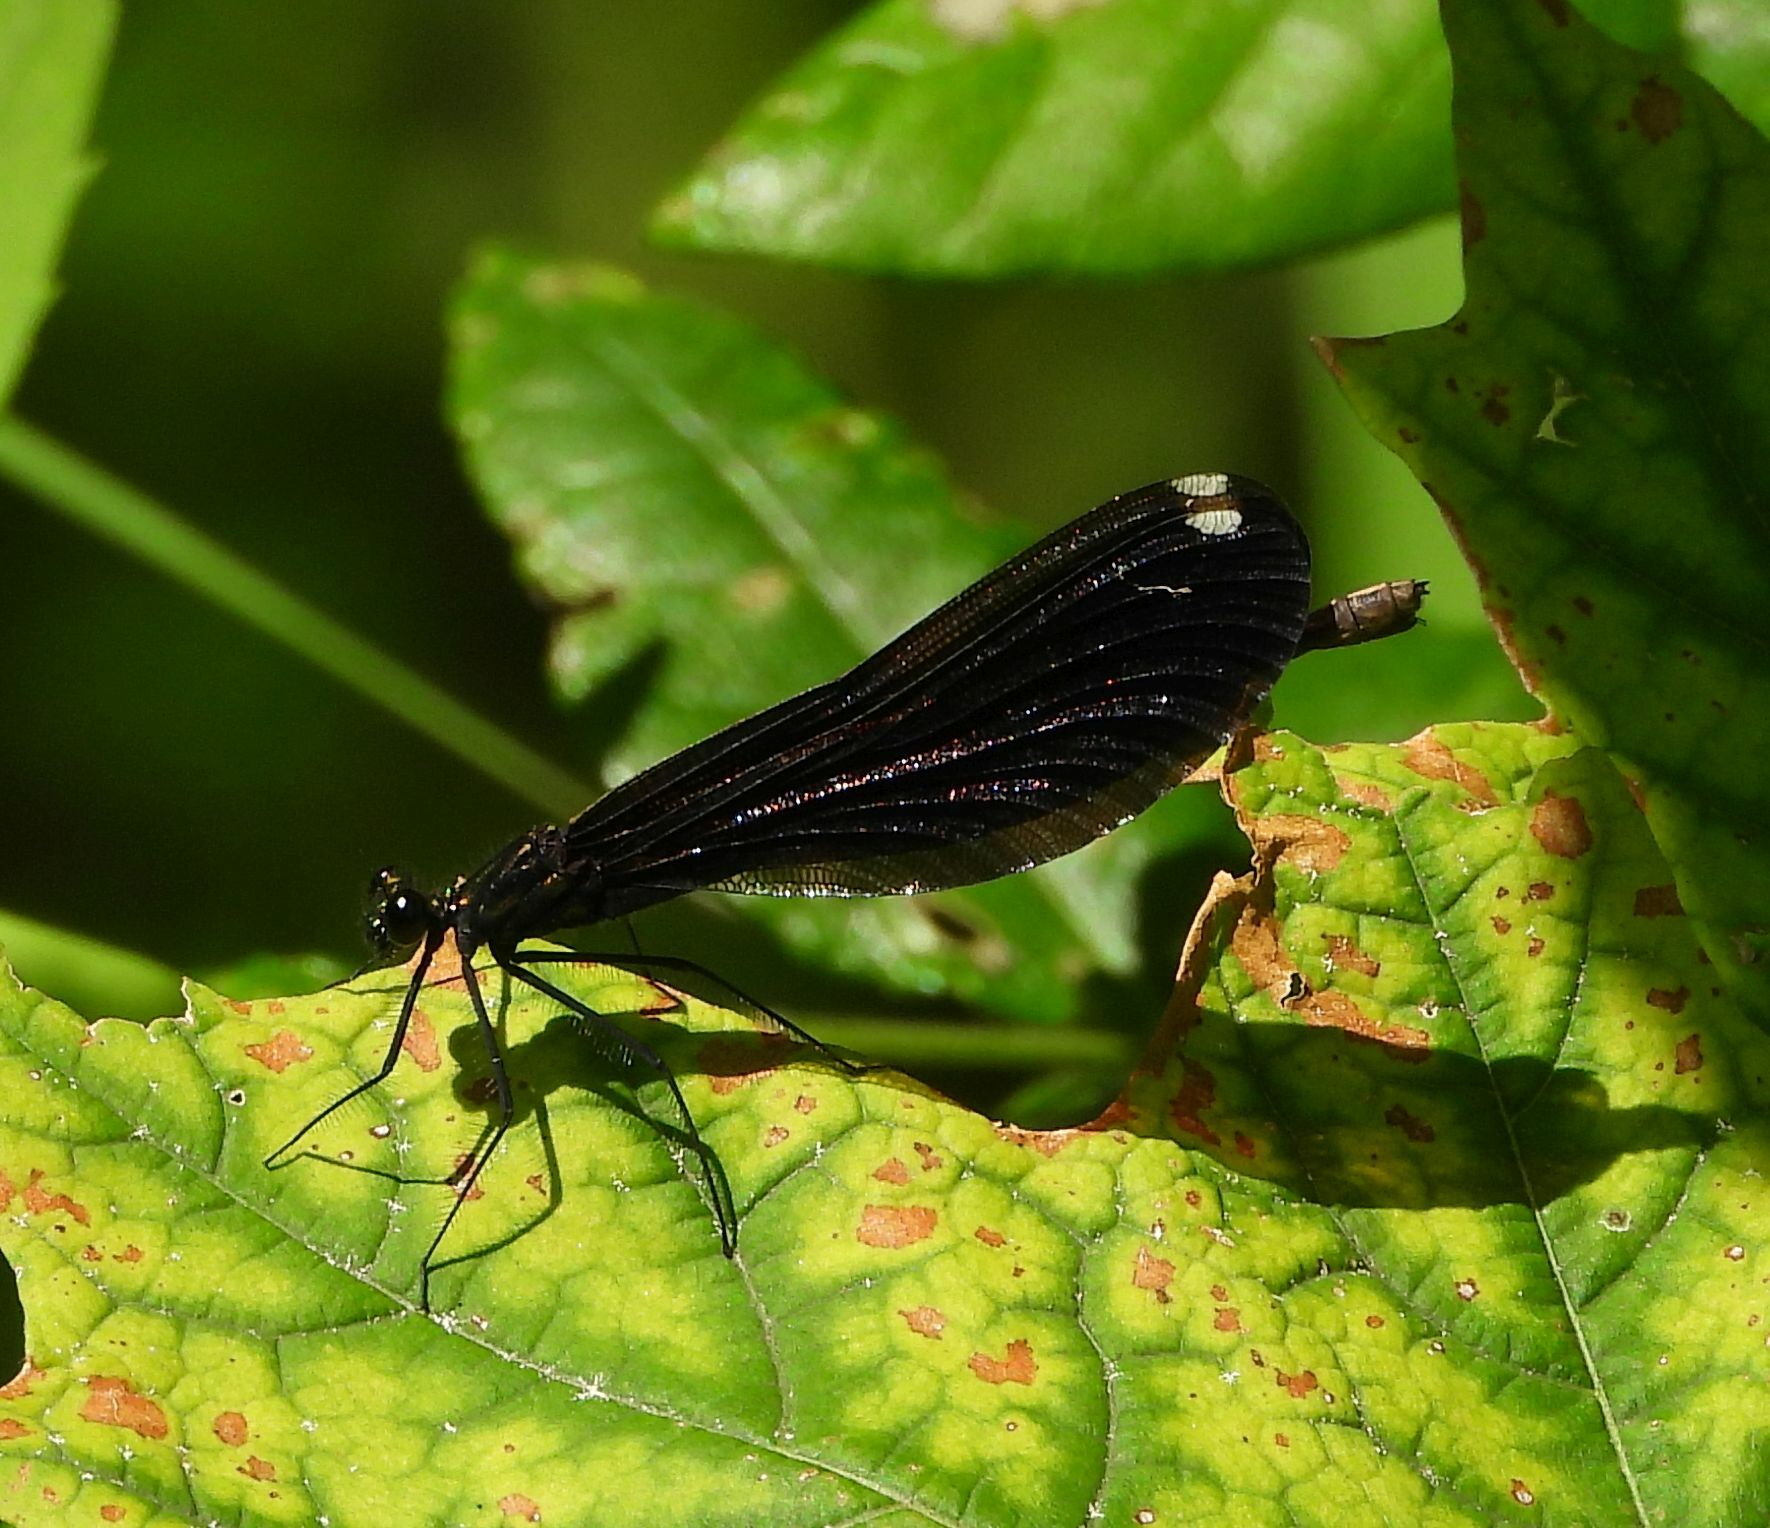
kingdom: Animalia
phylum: Arthropoda
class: Insecta
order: Odonata
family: Calopterygidae
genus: Calopteryx
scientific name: Calopteryx maculata
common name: Ebony jewelwing
